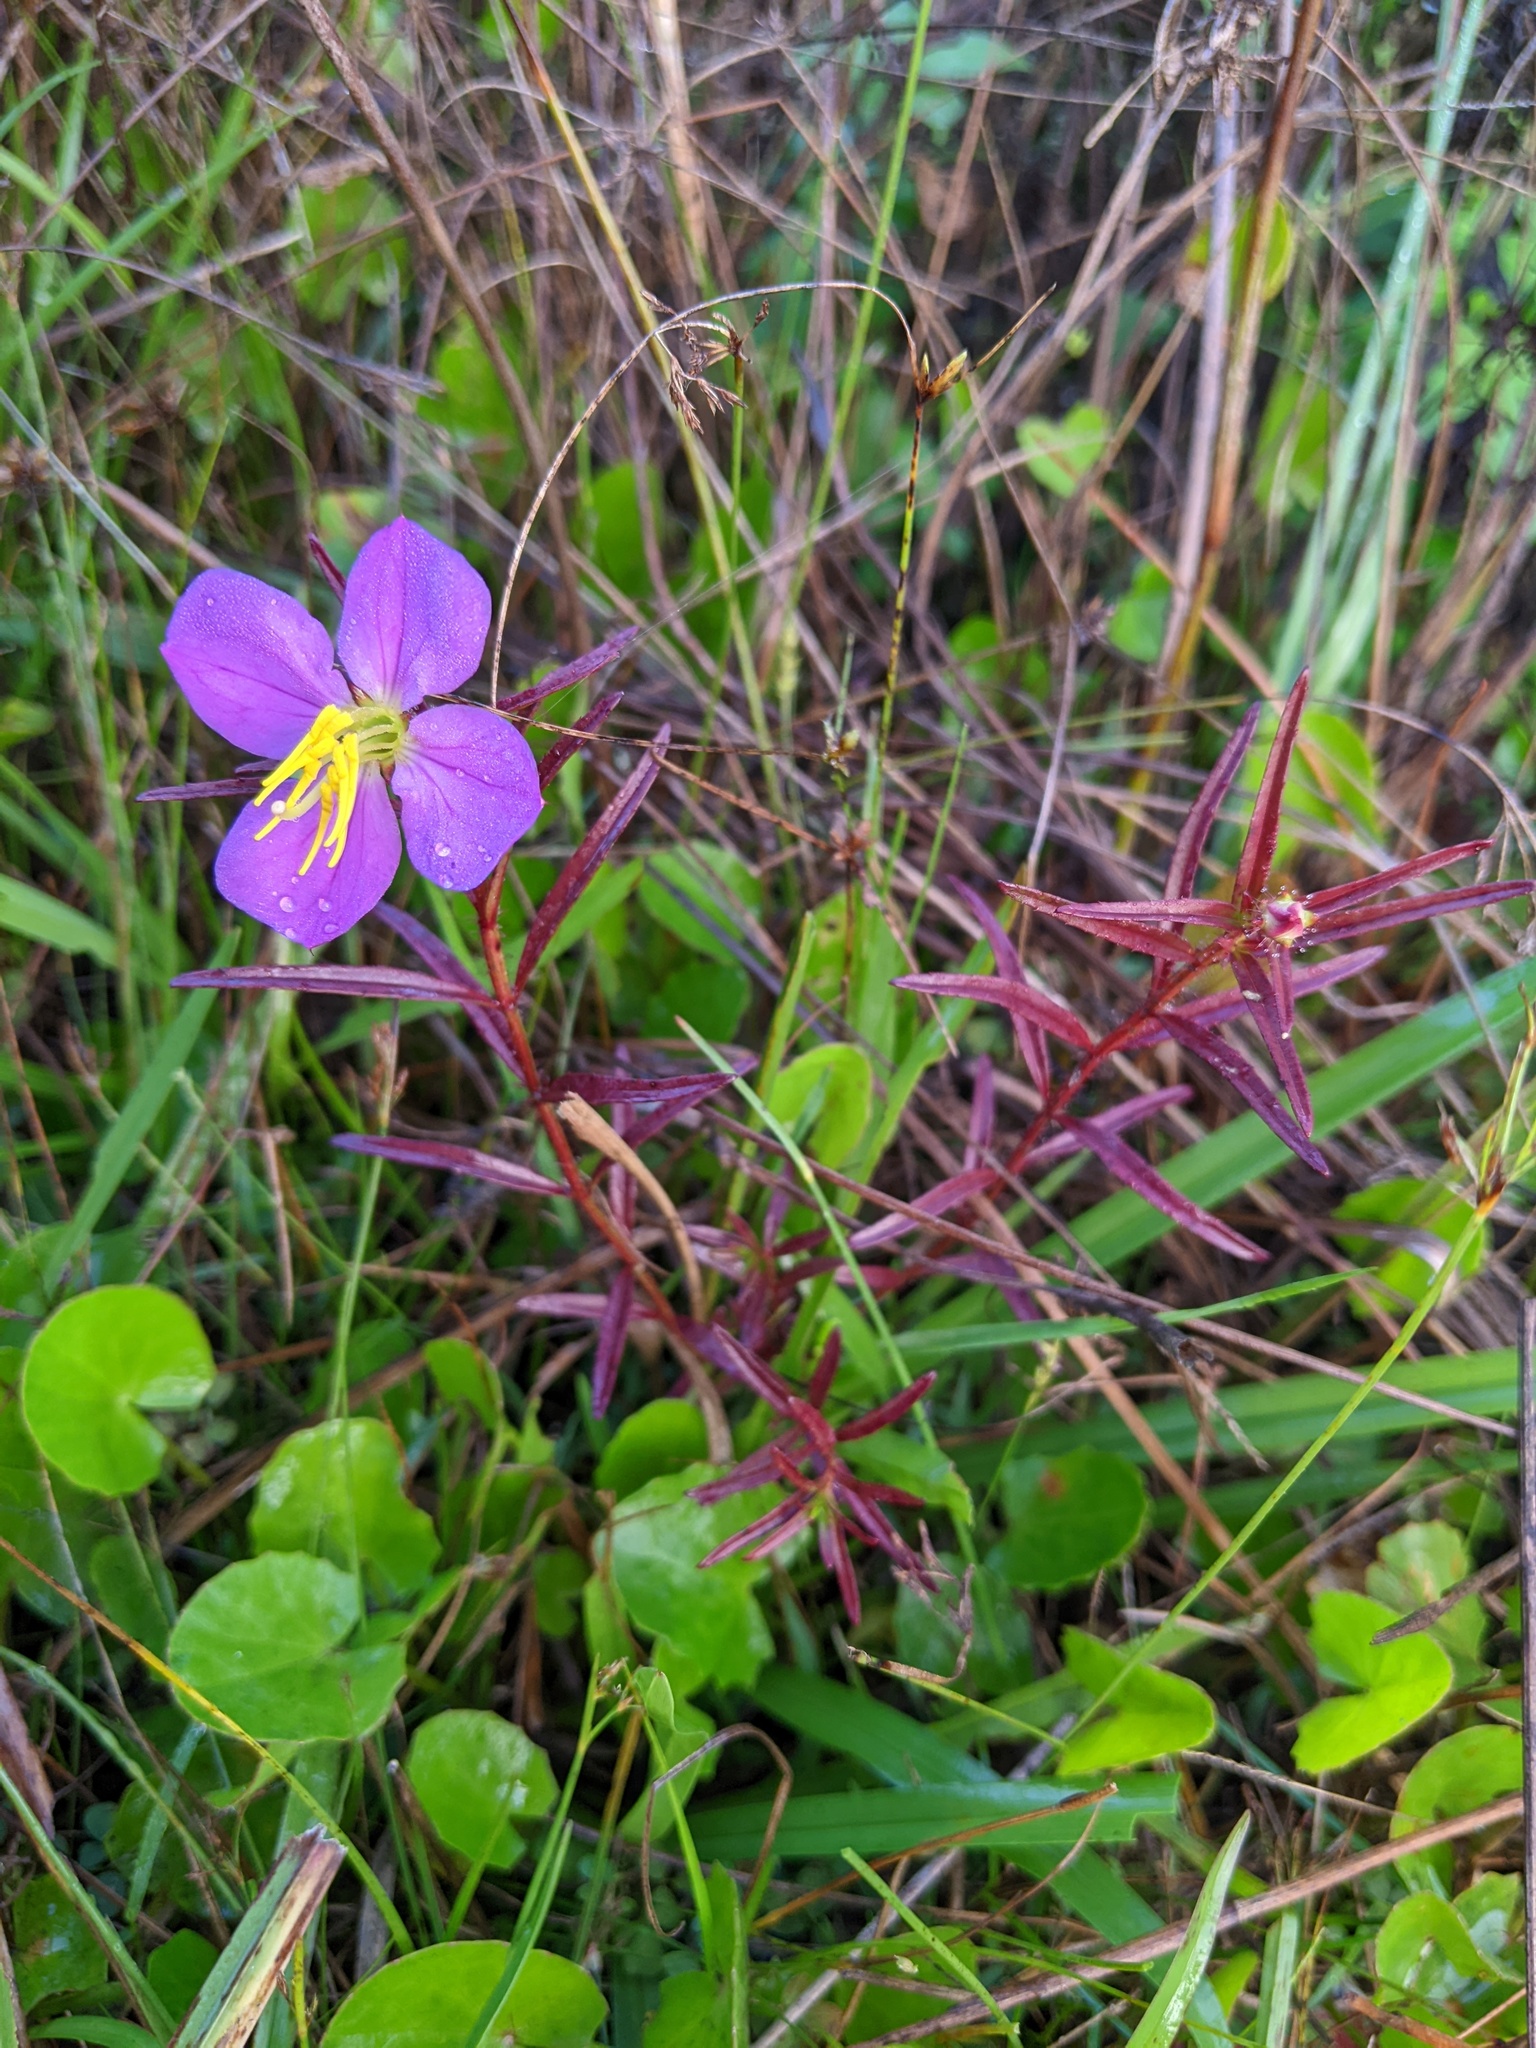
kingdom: Plantae
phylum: Tracheophyta
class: Magnoliopsida
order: Myrtales
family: Melastomataceae
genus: Rhexia
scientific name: Rhexia cubensis
